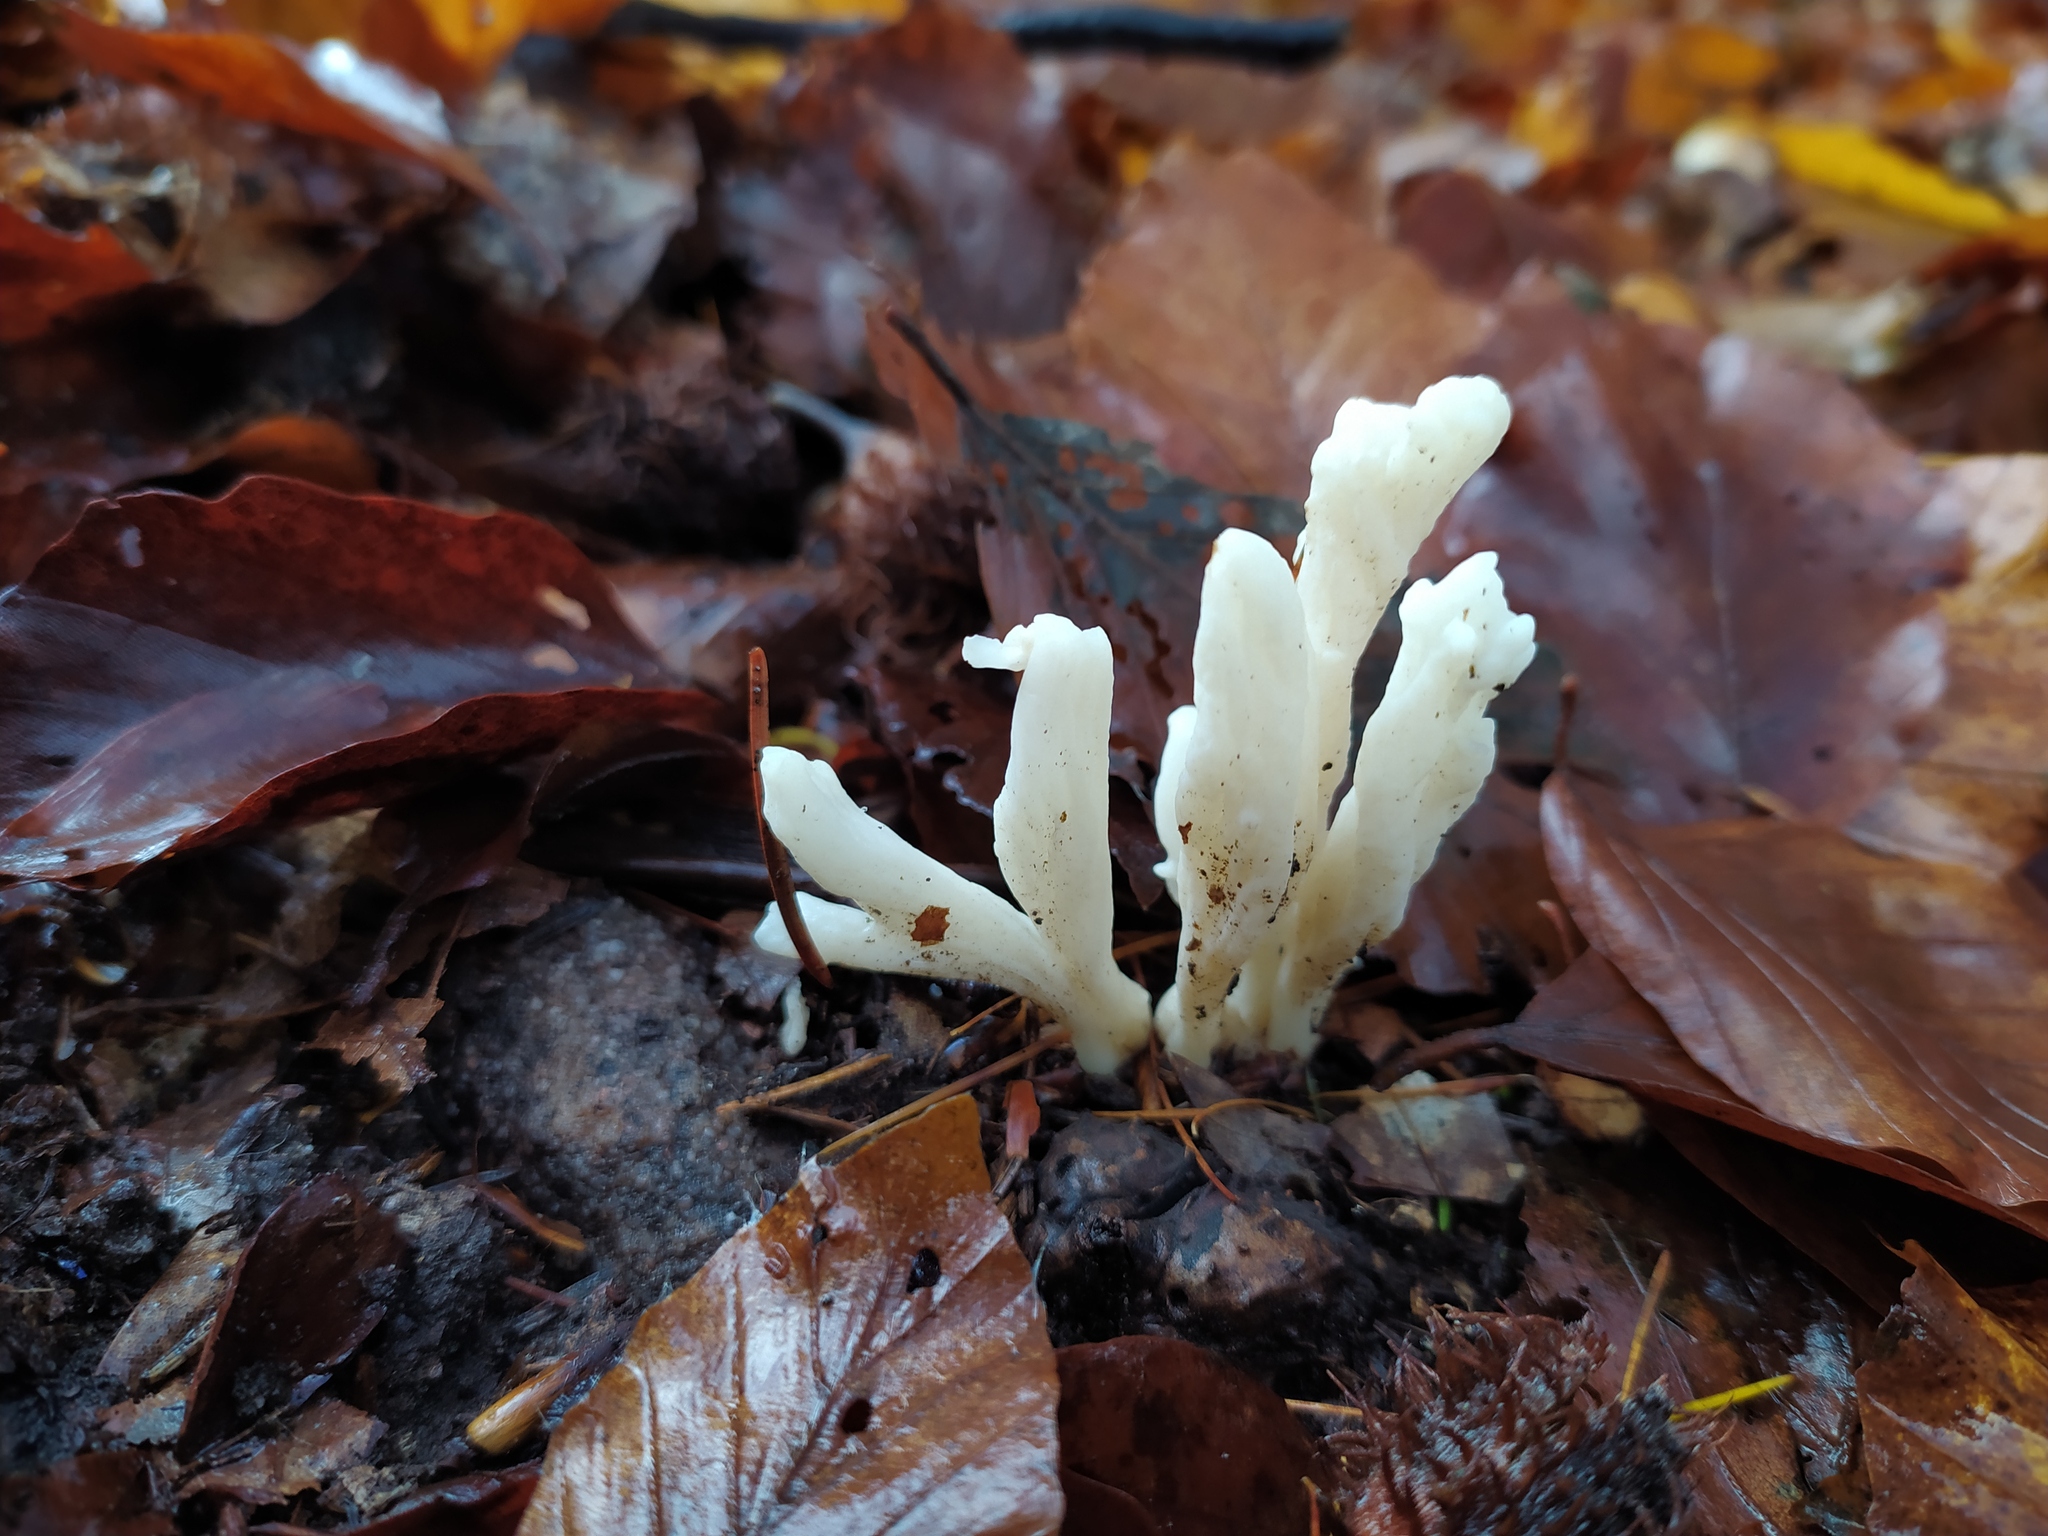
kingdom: Fungi
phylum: Basidiomycota
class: Agaricomycetes
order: Cantharellales
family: Hydnaceae
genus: Clavulina
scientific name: Clavulina rugosa
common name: Wrinkled club
